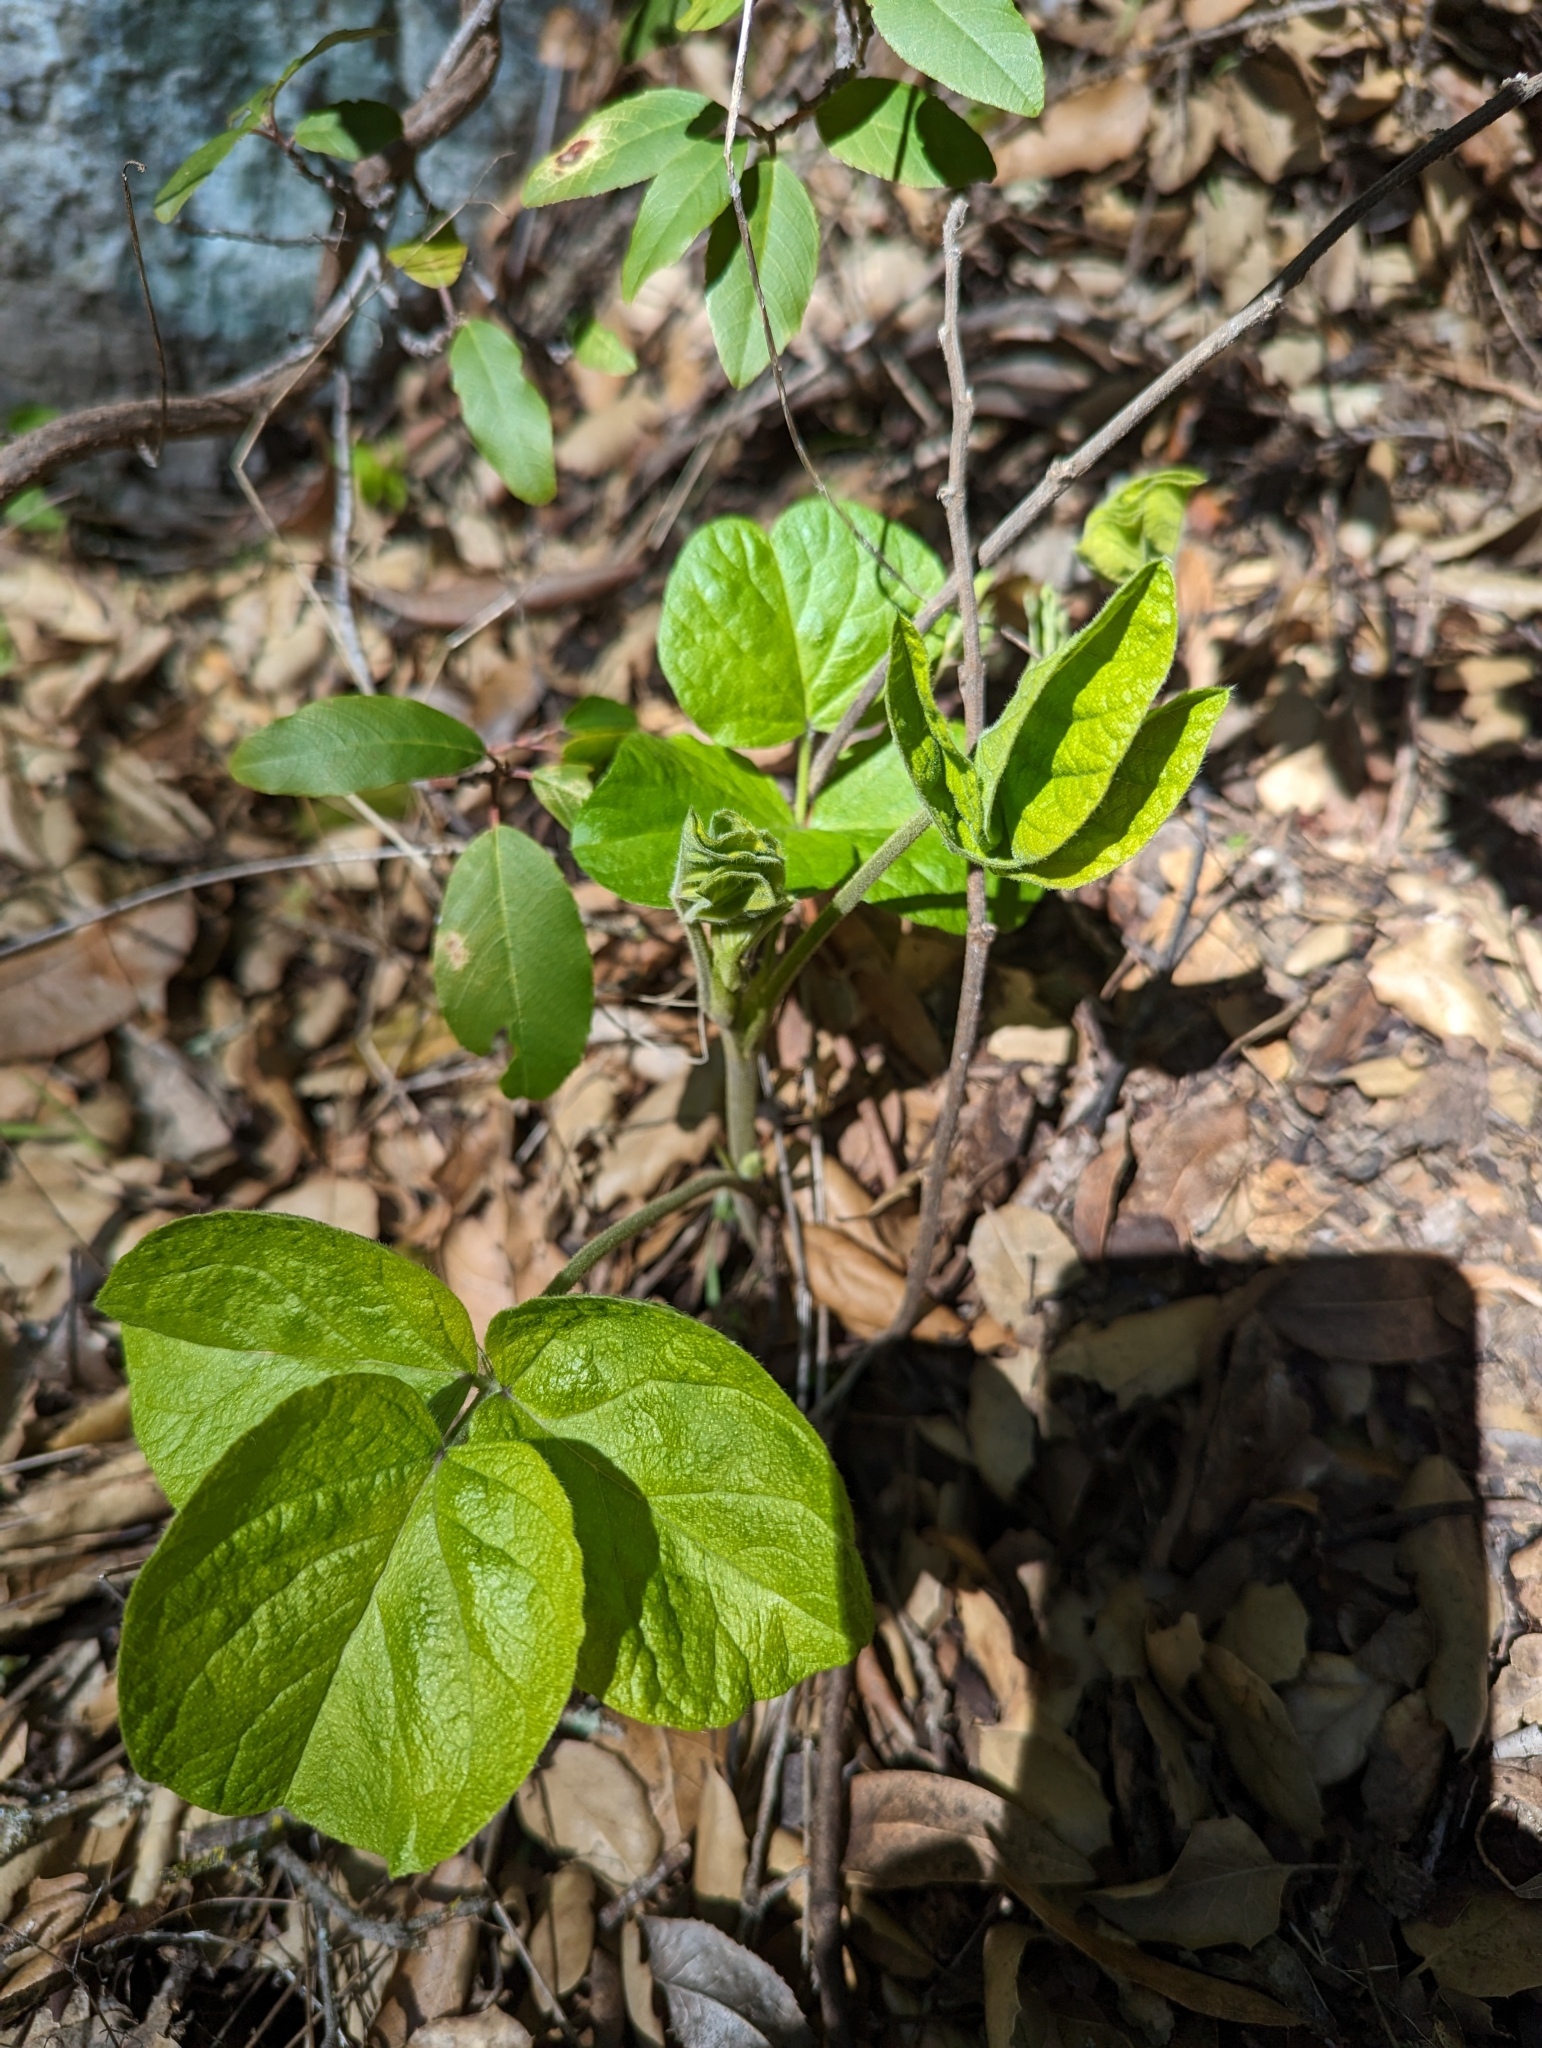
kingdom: Plantae
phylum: Tracheophyta
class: Magnoliopsida
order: Fabales
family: Fabaceae
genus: Hoita
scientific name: Hoita strobilina
